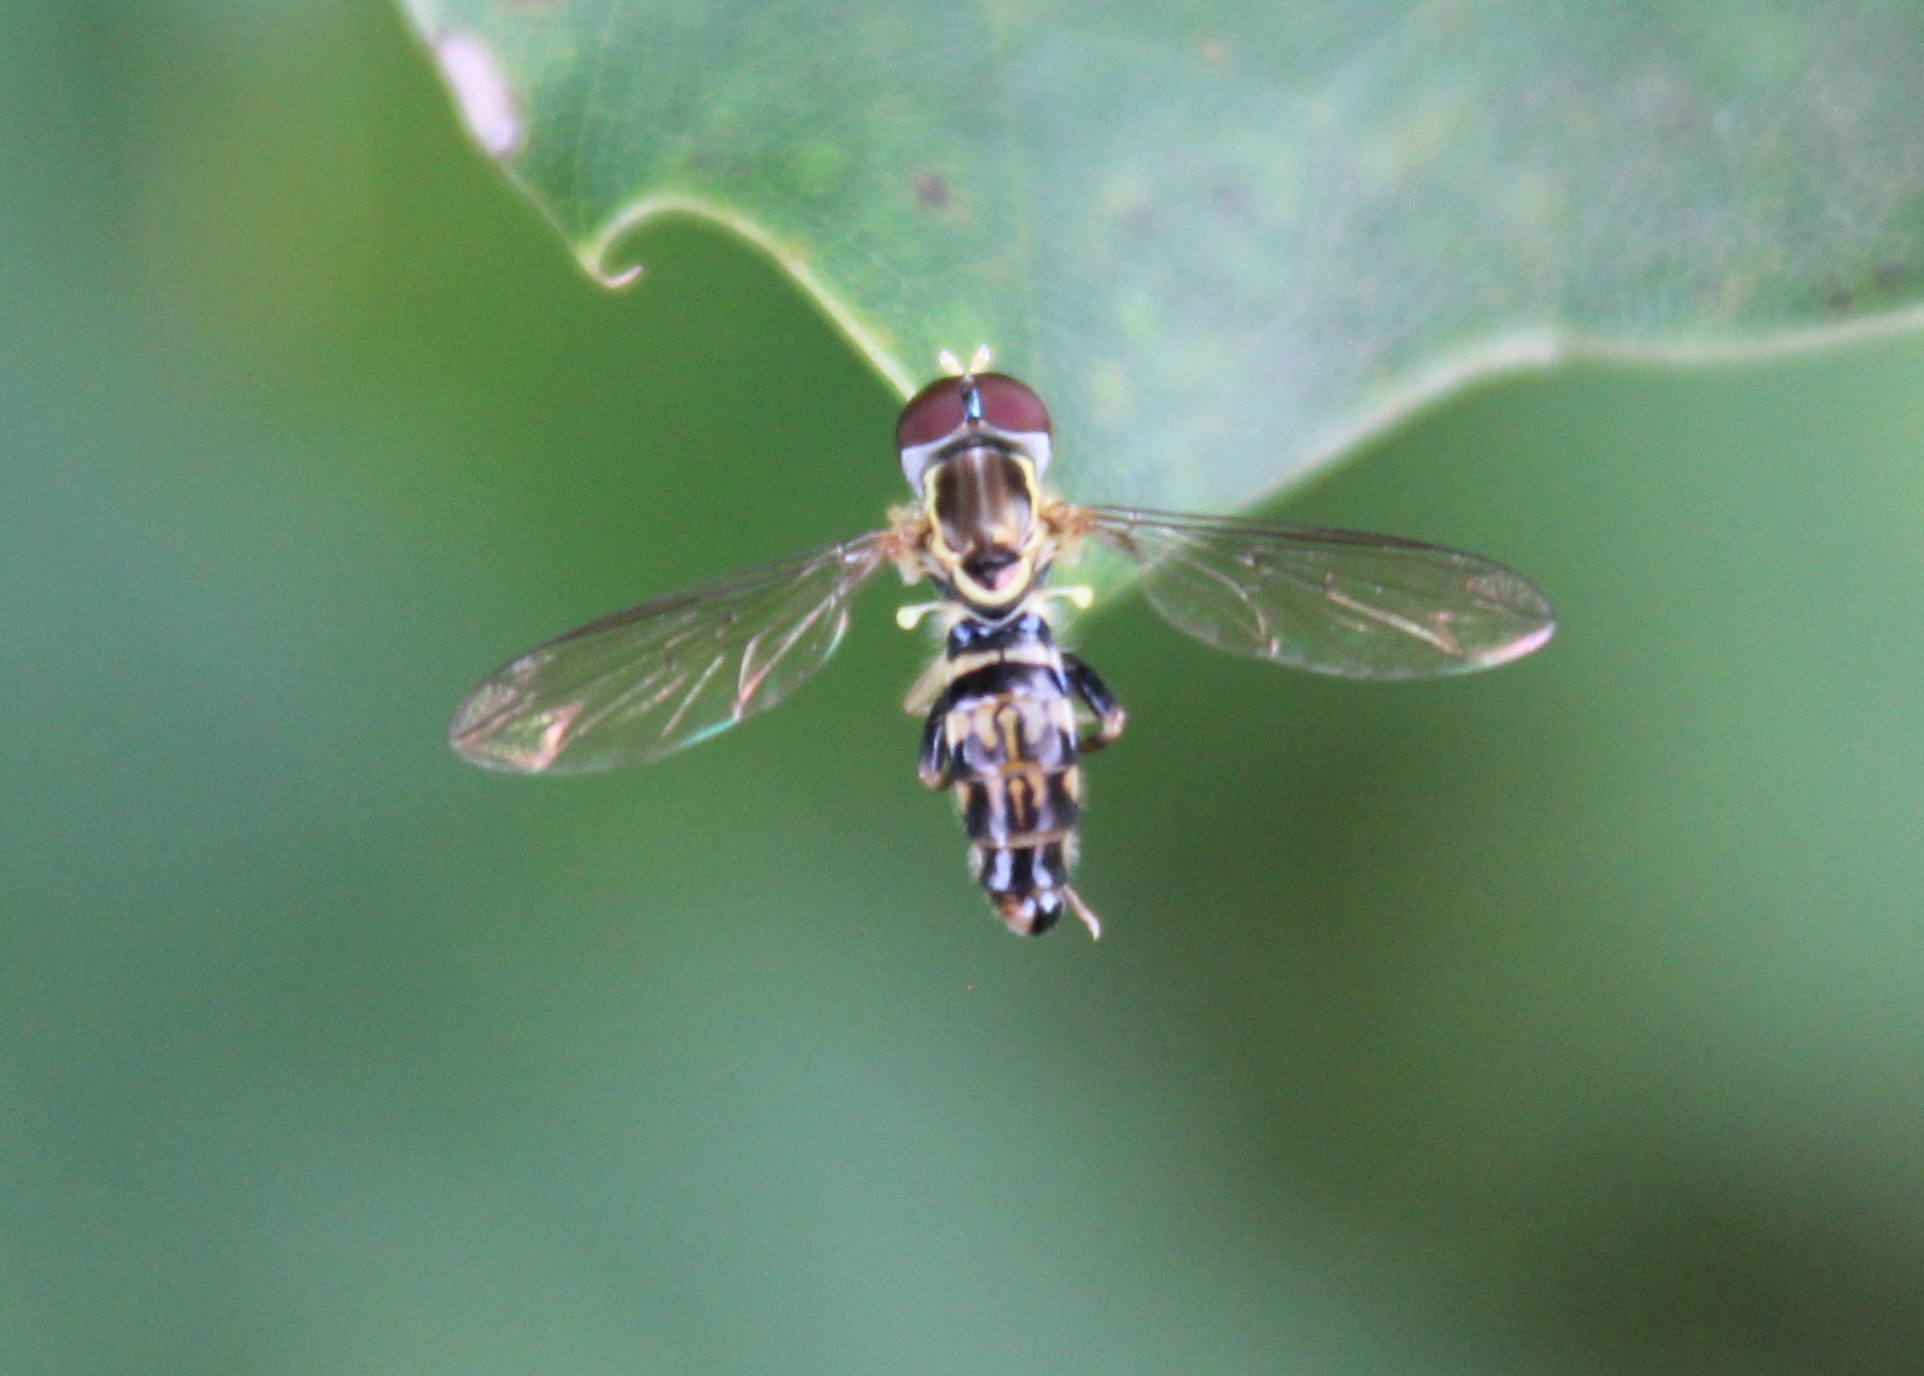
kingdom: Animalia
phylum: Arthropoda
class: Insecta
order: Diptera
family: Syrphidae
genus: Toxomerus
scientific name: Toxomerus geminatus
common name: Eastern calligrapher
